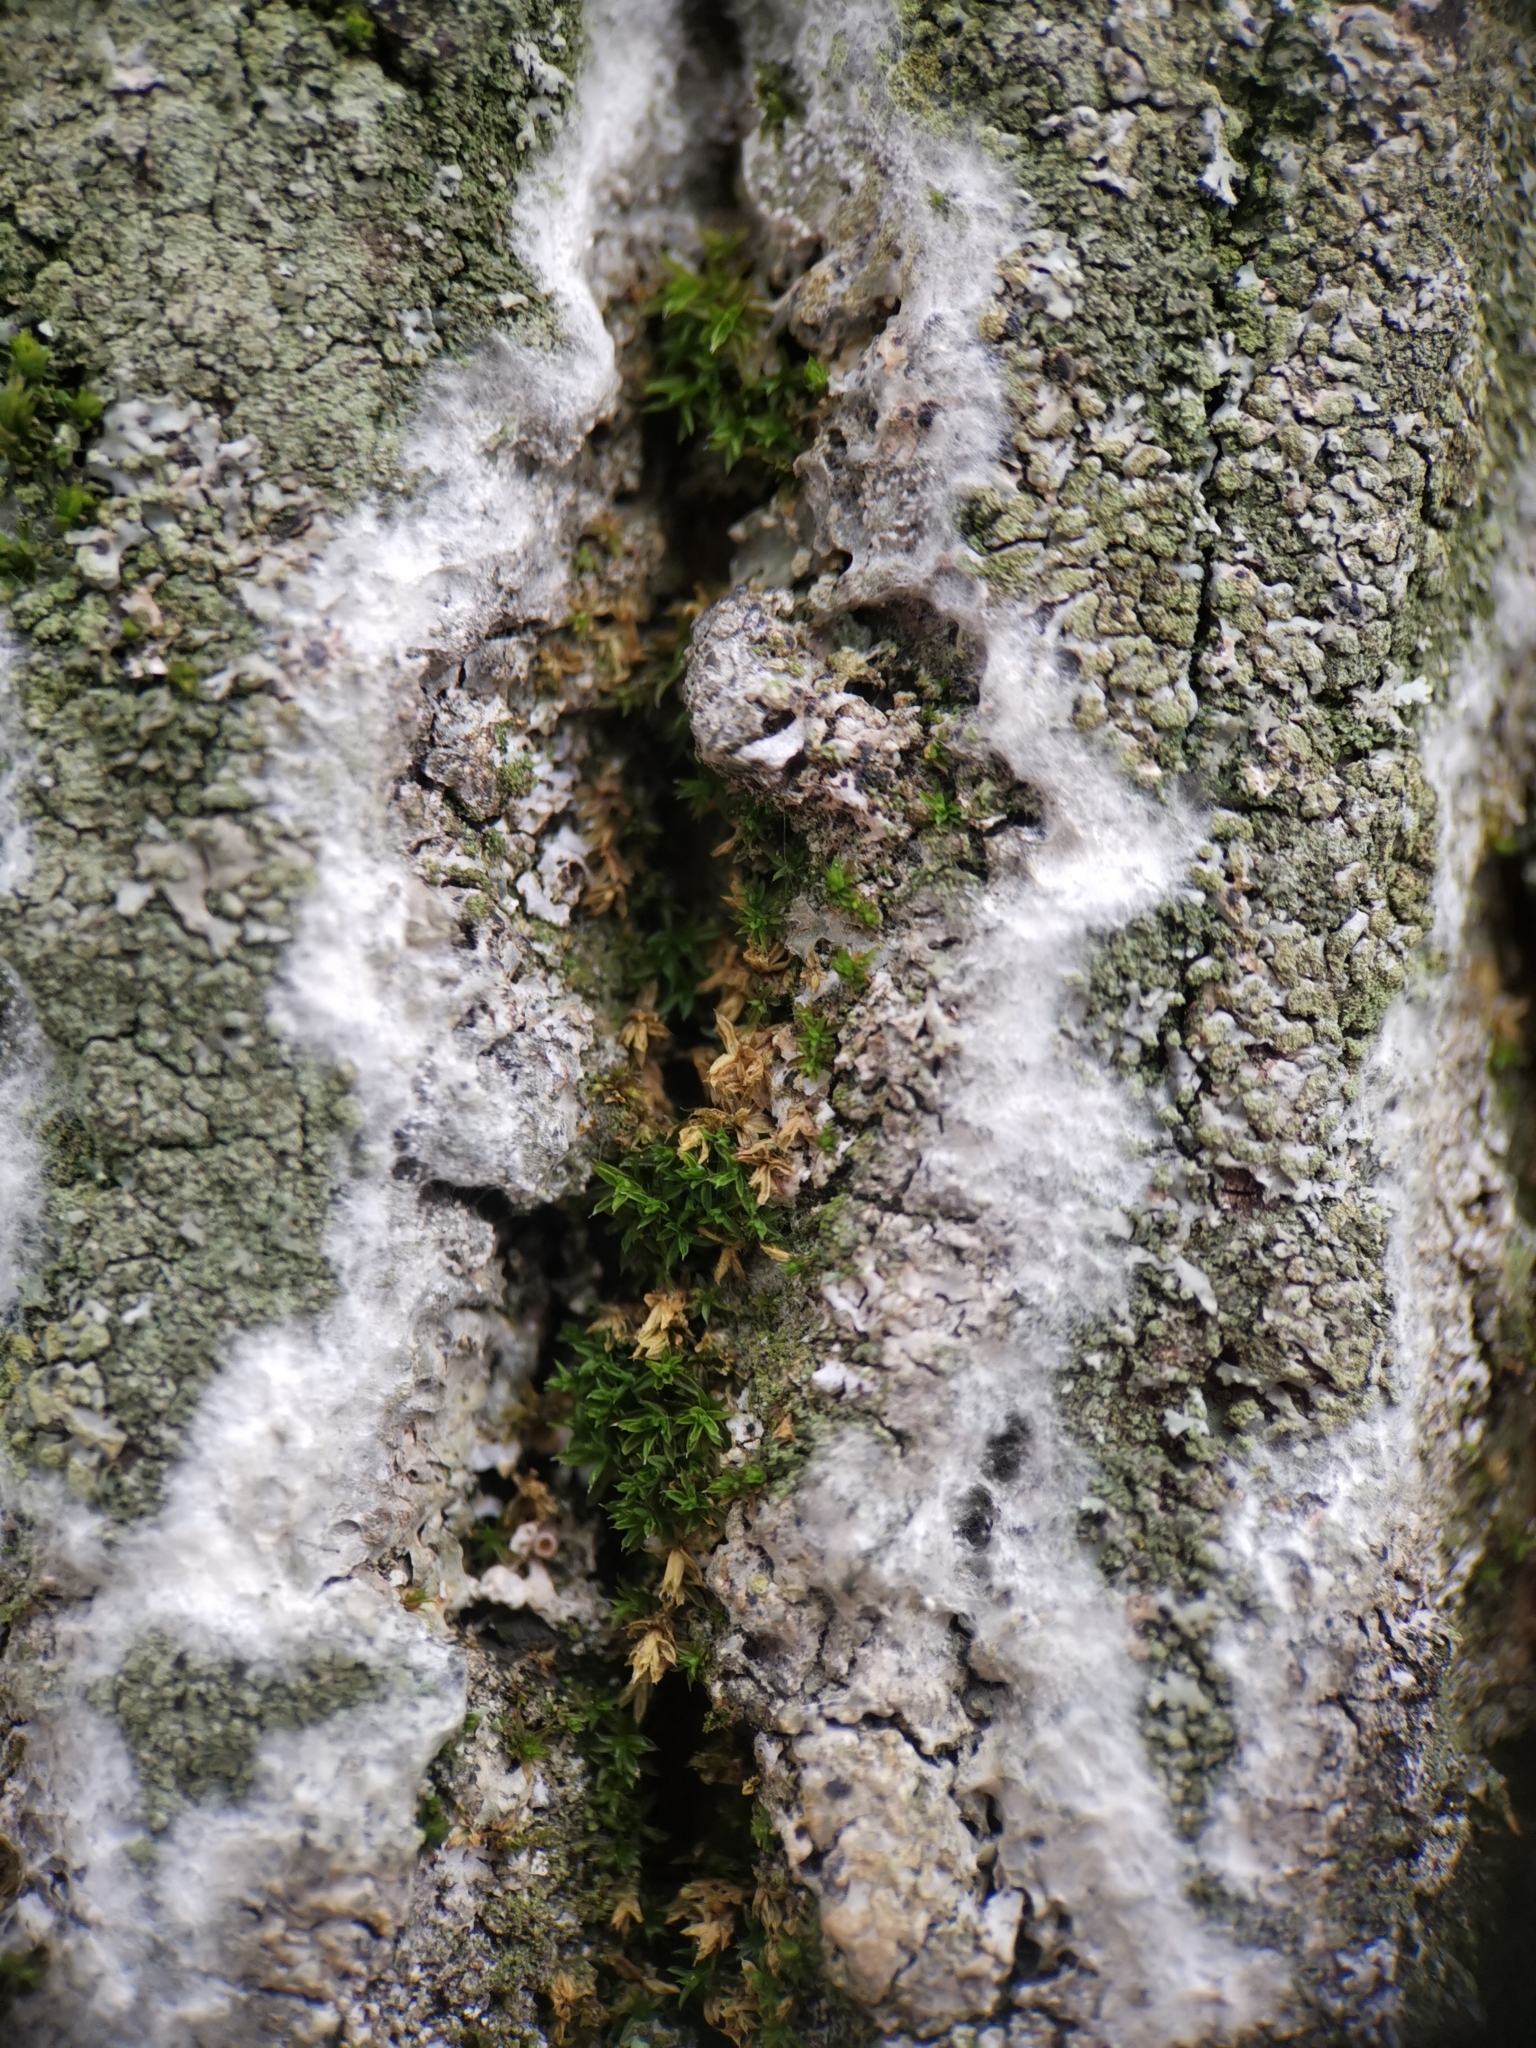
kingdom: Fungi
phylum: Basidiomycota
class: Agaricomycetes
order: Atheliales
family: Atheliaceae
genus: Athelia
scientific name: Athelia arachnoidea
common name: Candelabra duster
